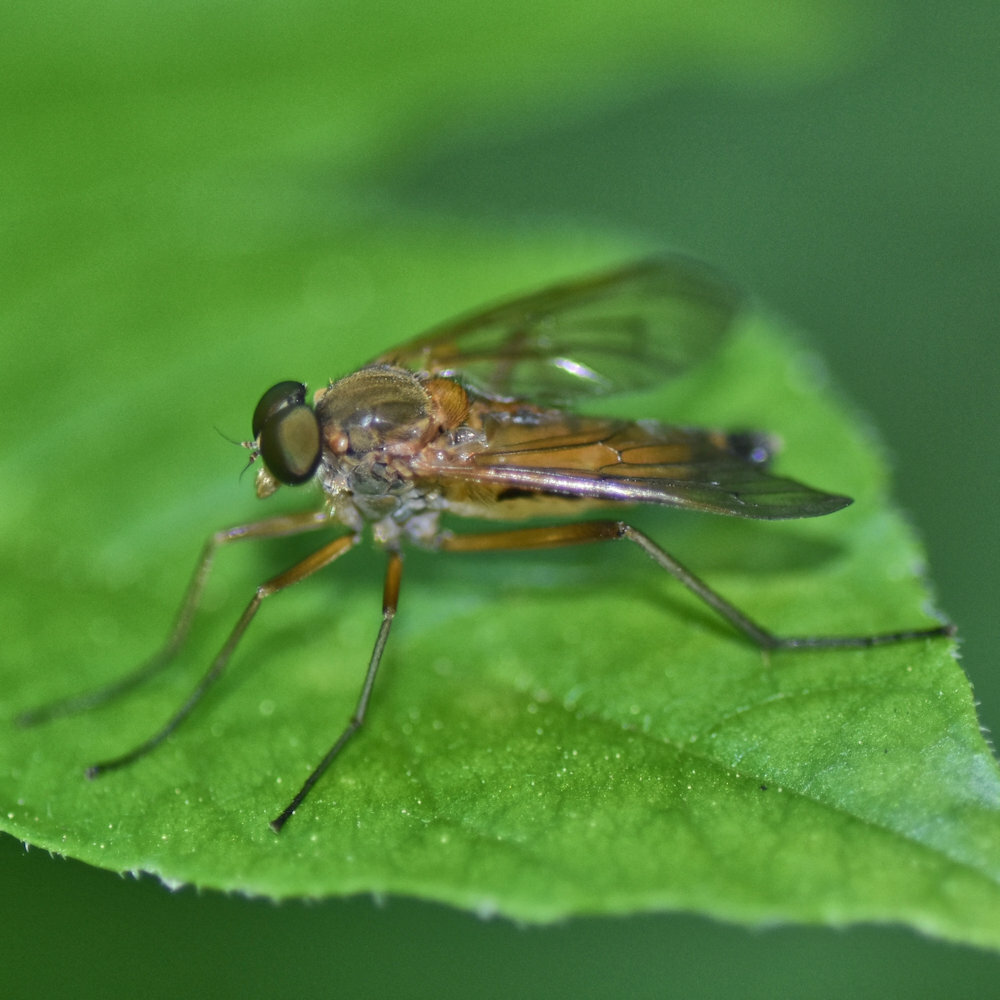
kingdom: Animalia
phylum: Arthropoda
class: Insecta
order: Diptera
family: Rhagionidae
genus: Rhagio
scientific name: Rhagio tringaria
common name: Marsh snipefly
